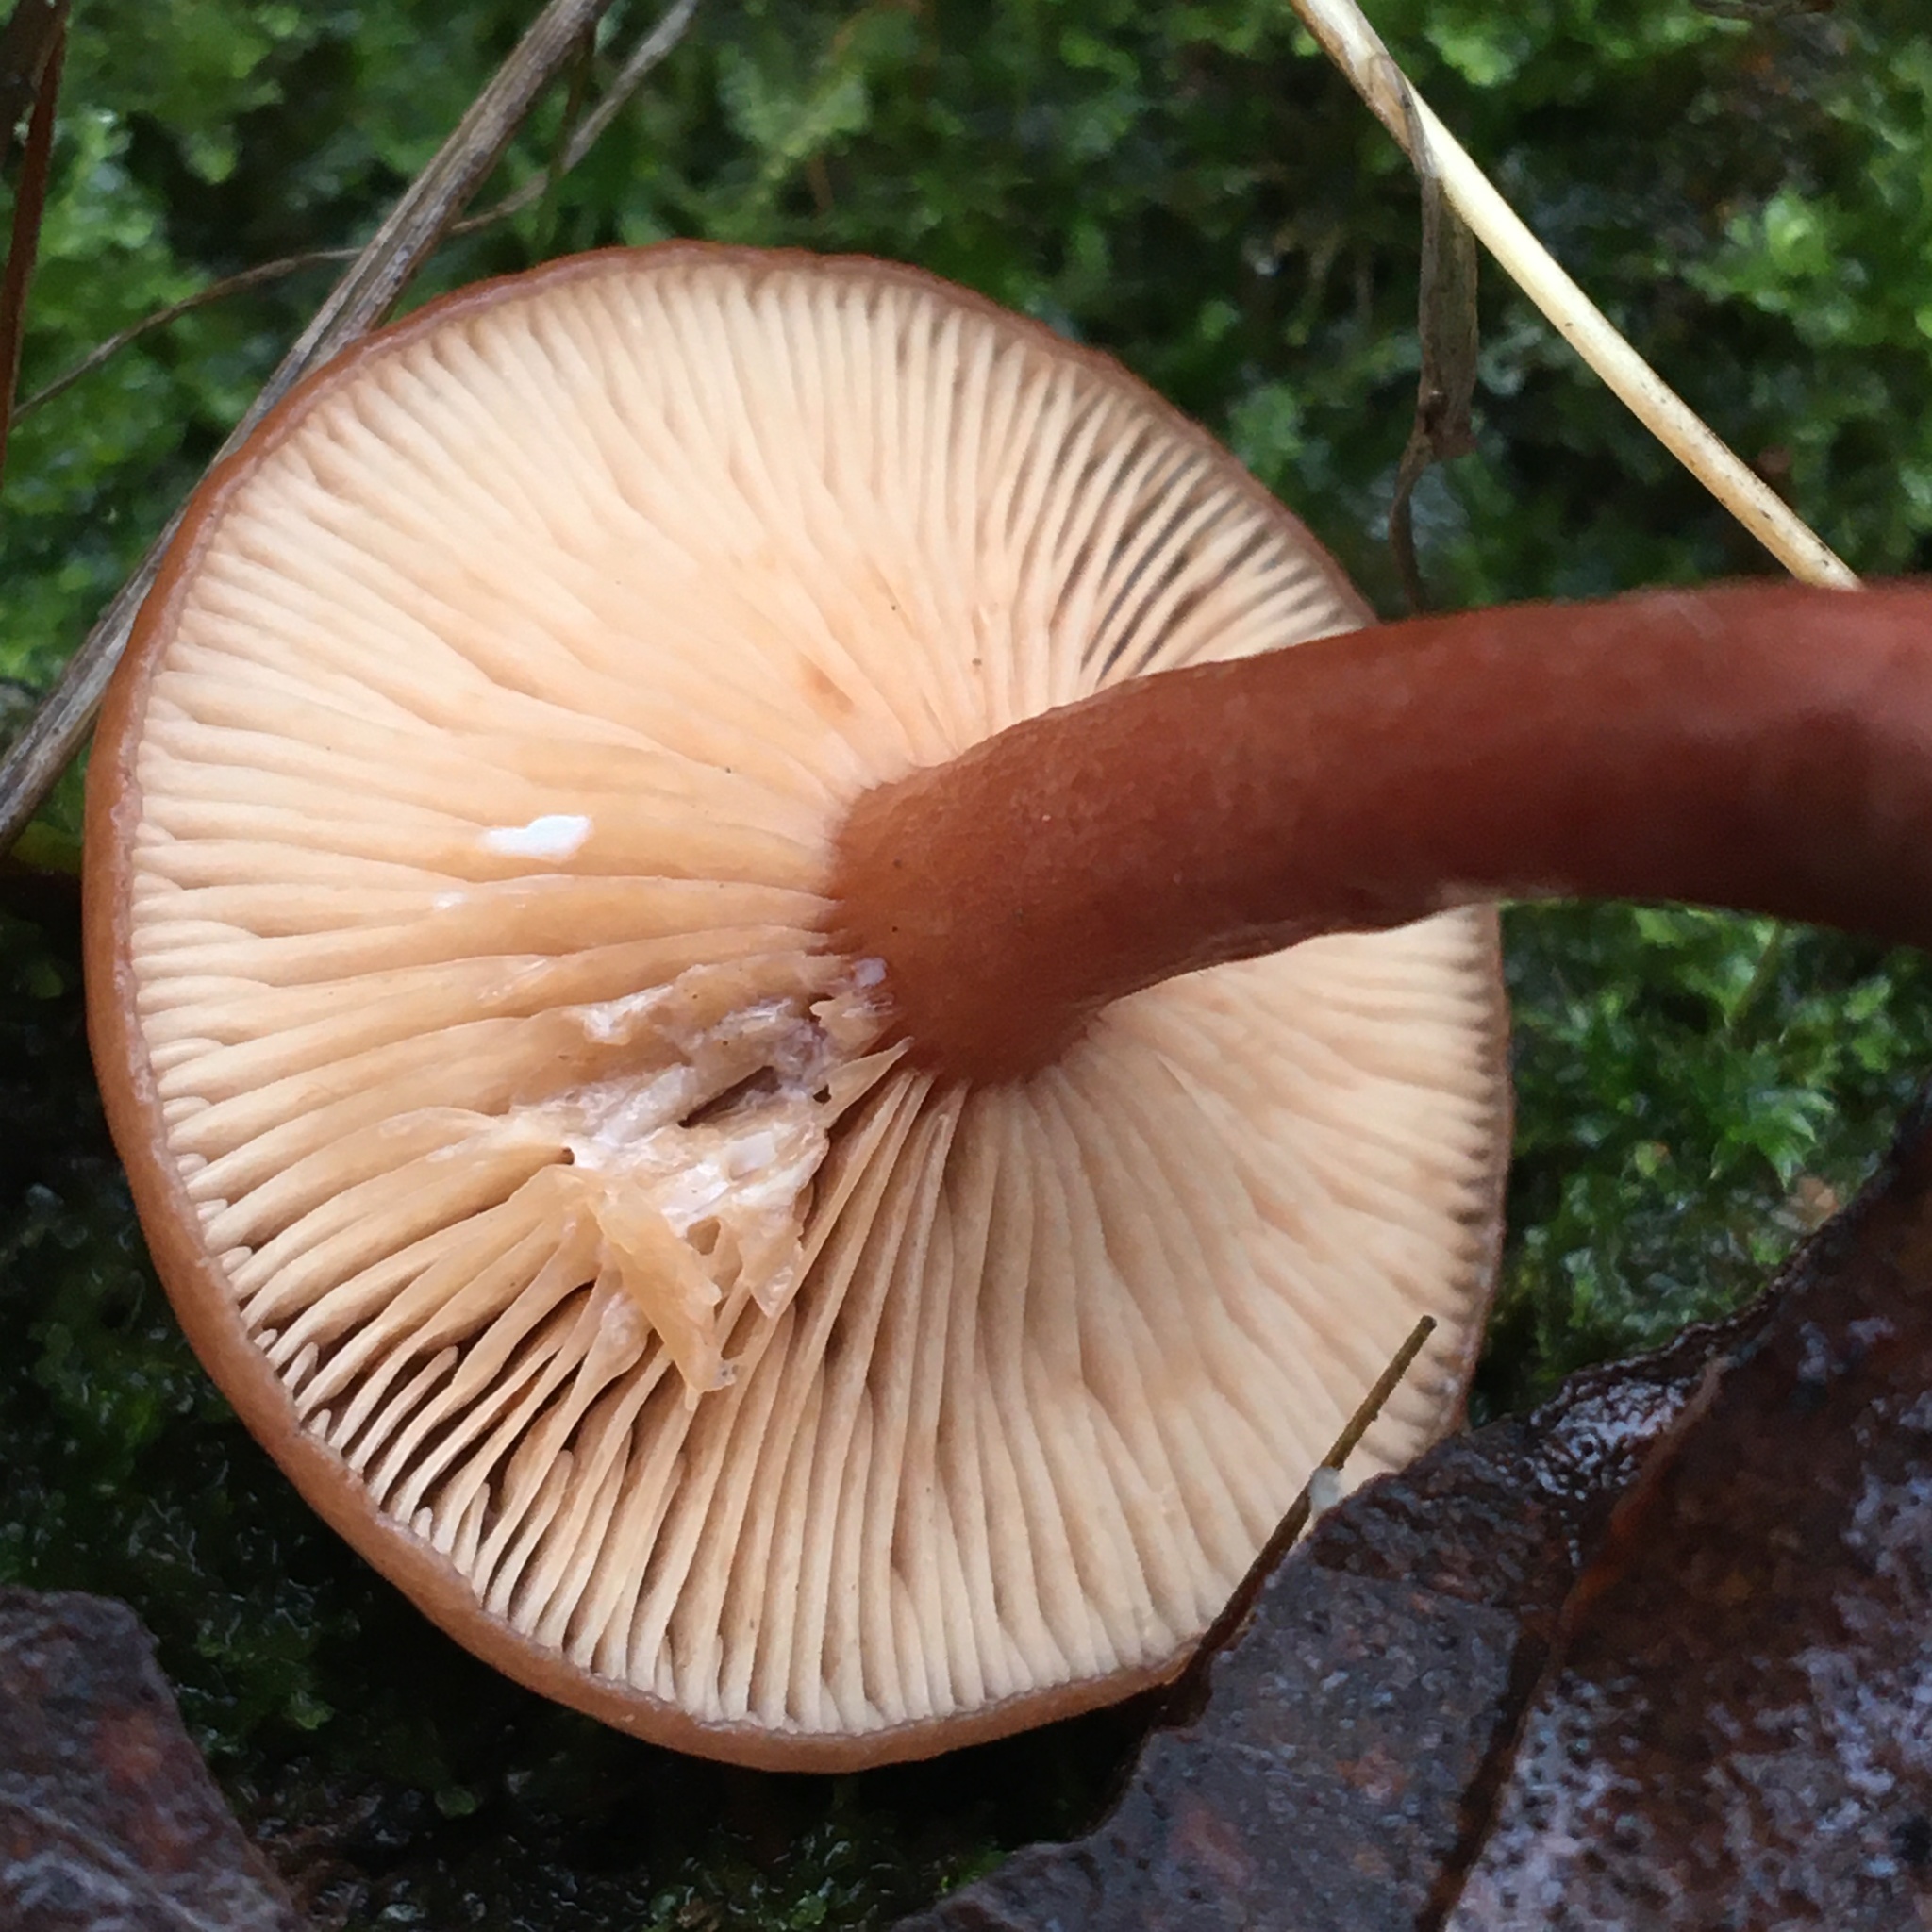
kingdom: Fungi
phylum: Basidiomycota
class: Agaricomycetes
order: Russulales
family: Russulaceae
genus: Lactarius
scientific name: Lactarius eucalypti
